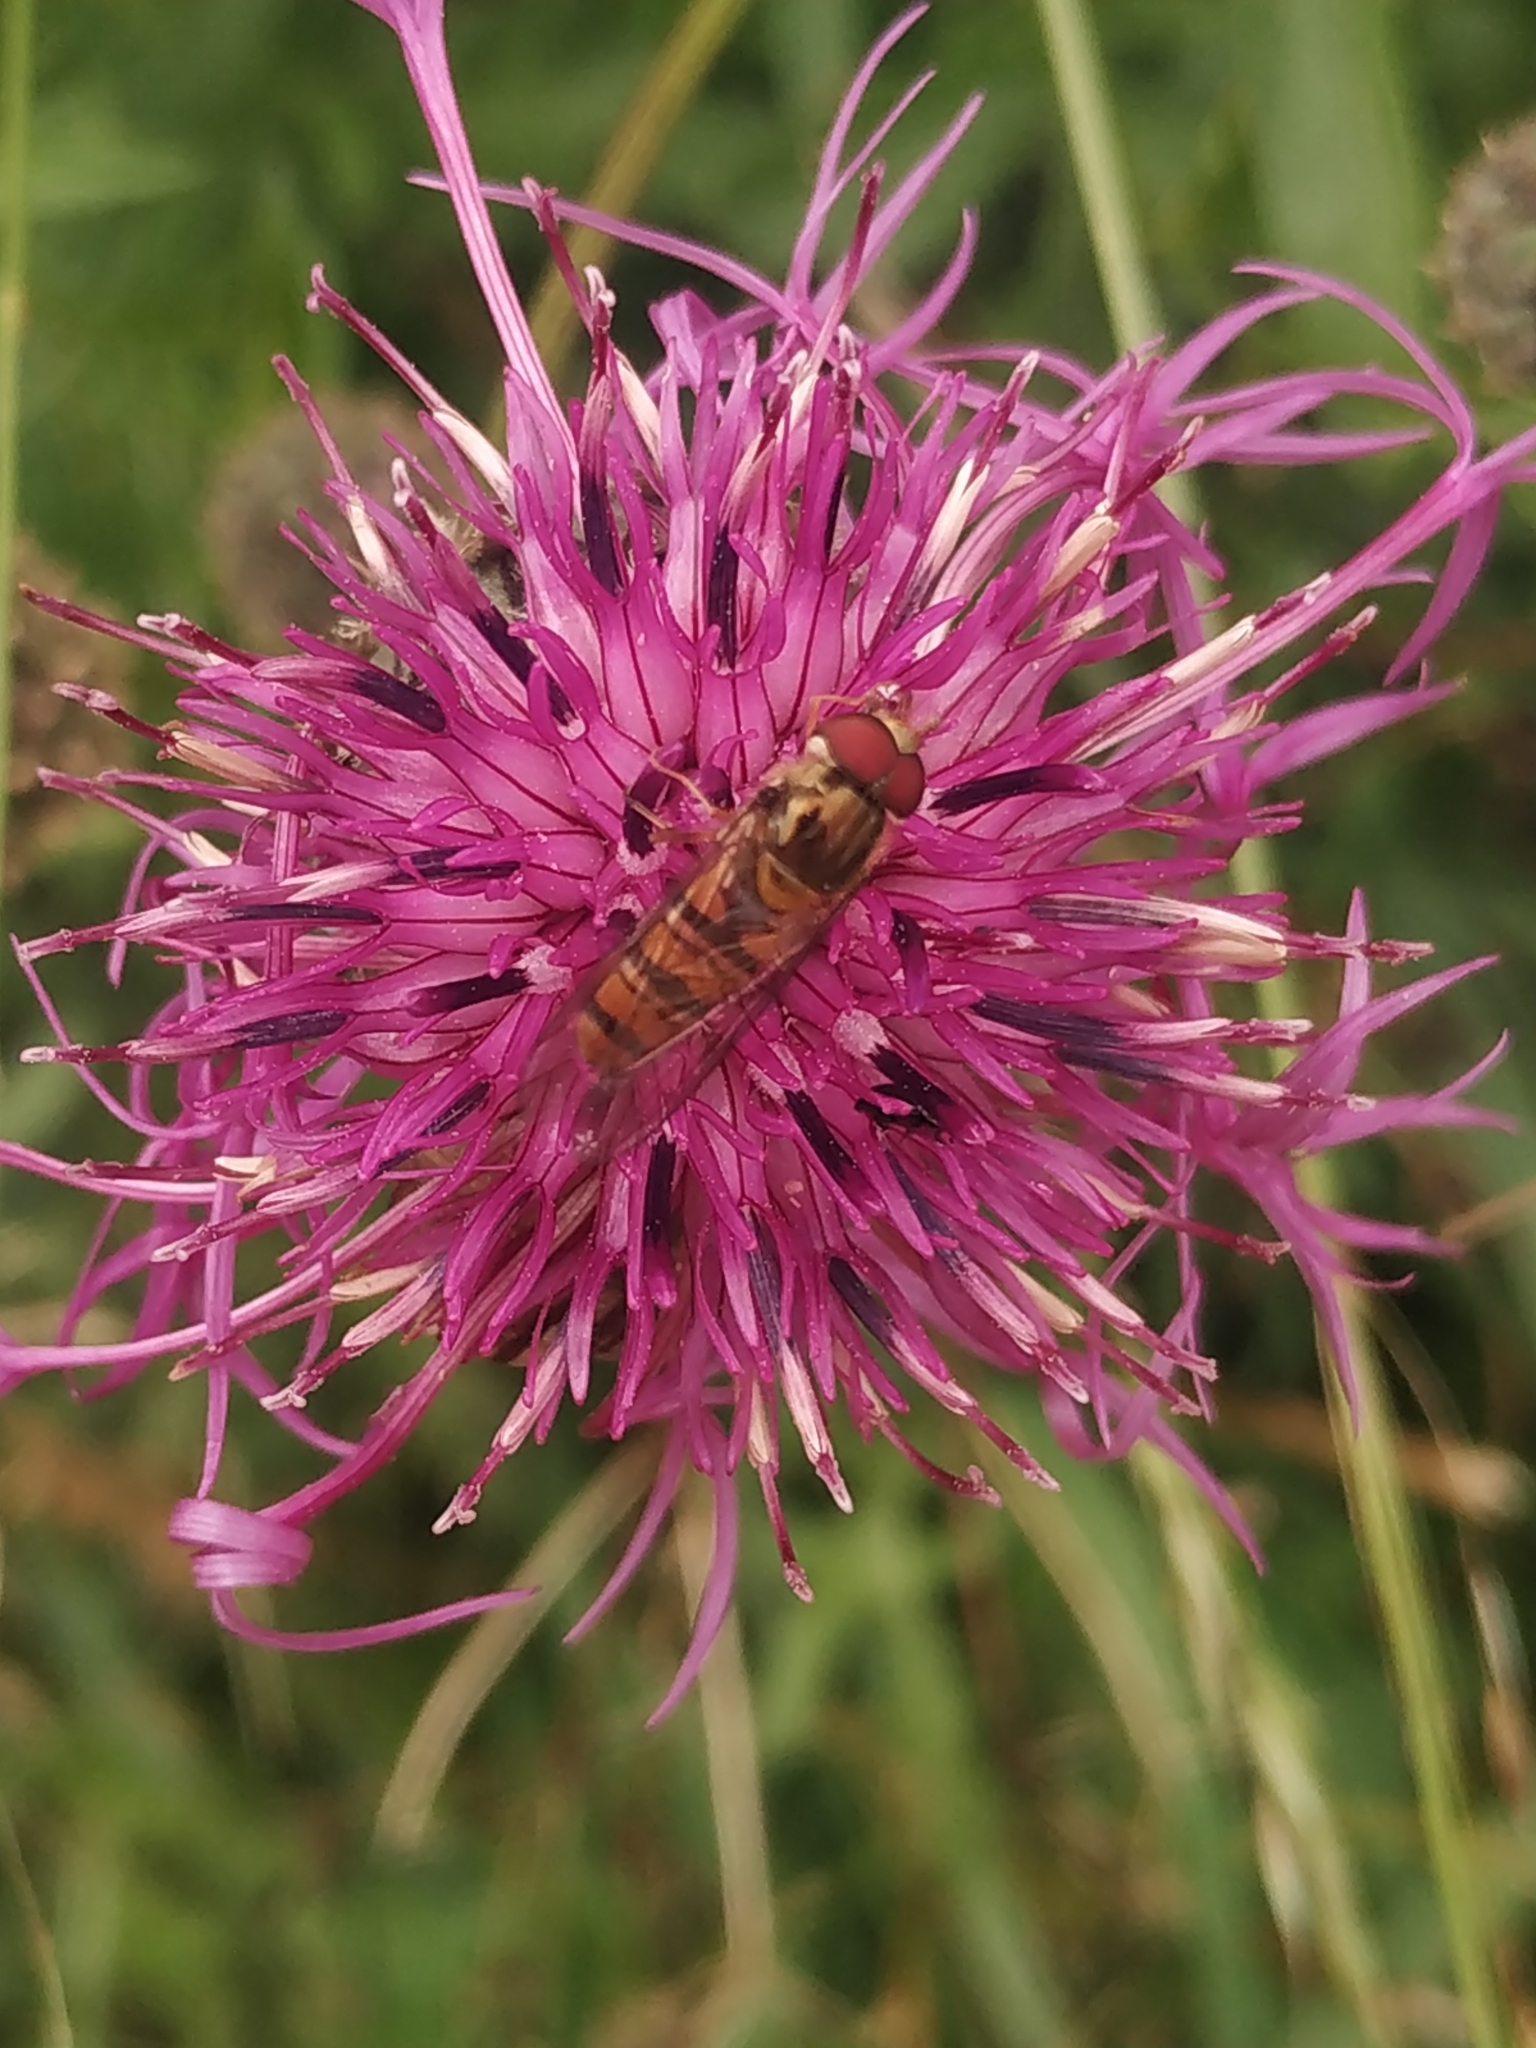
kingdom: Animalia
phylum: Arthropoda
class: Insecta
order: Diptera
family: Syrphidae
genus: Episyrphus
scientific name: Episyrphus balteatus
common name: Marmalade hoverfly
